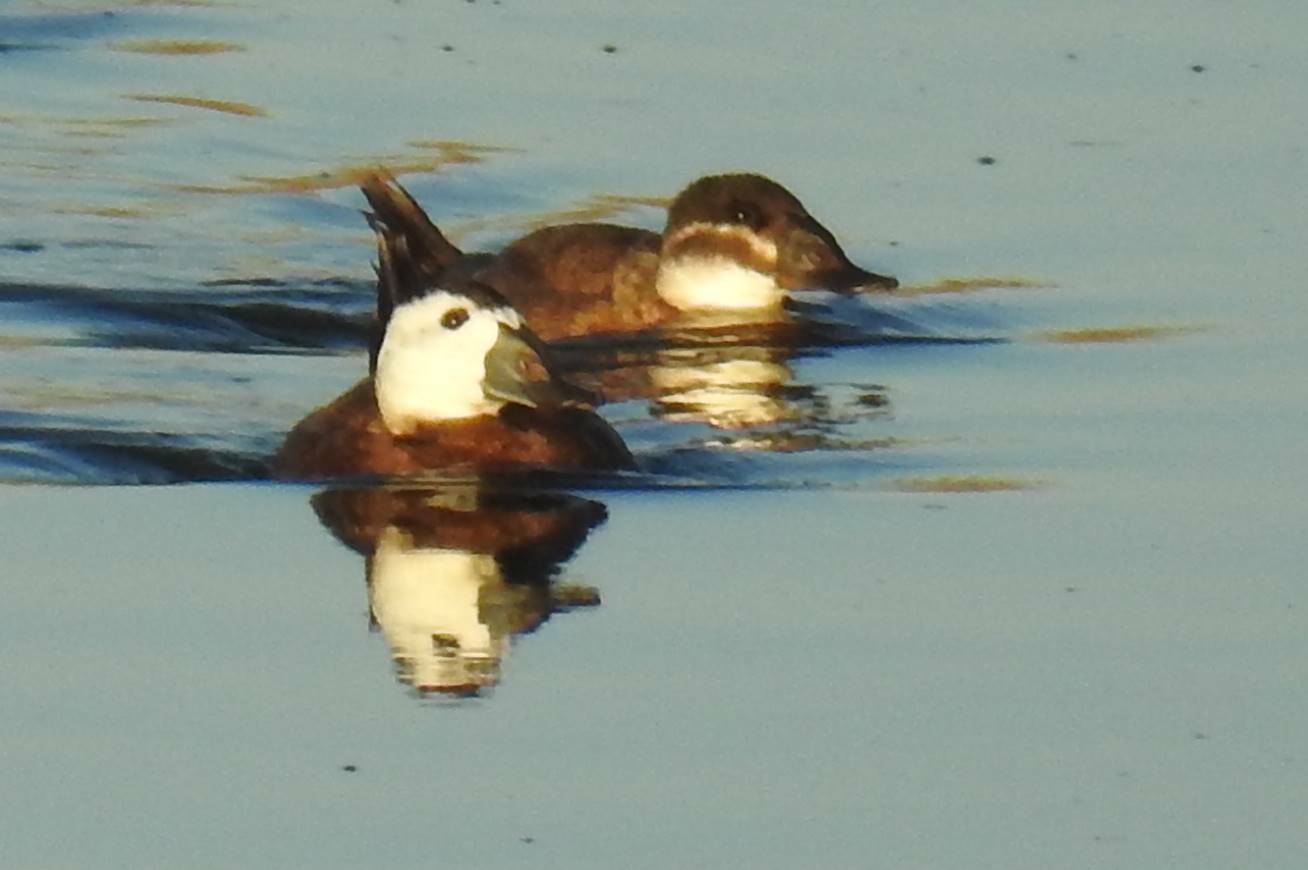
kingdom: Animalia
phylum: Chordata
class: Aves
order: Anseriformes
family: Anatidae
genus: Oxyura
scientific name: Oxyura leucocephala
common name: White-headed duck
